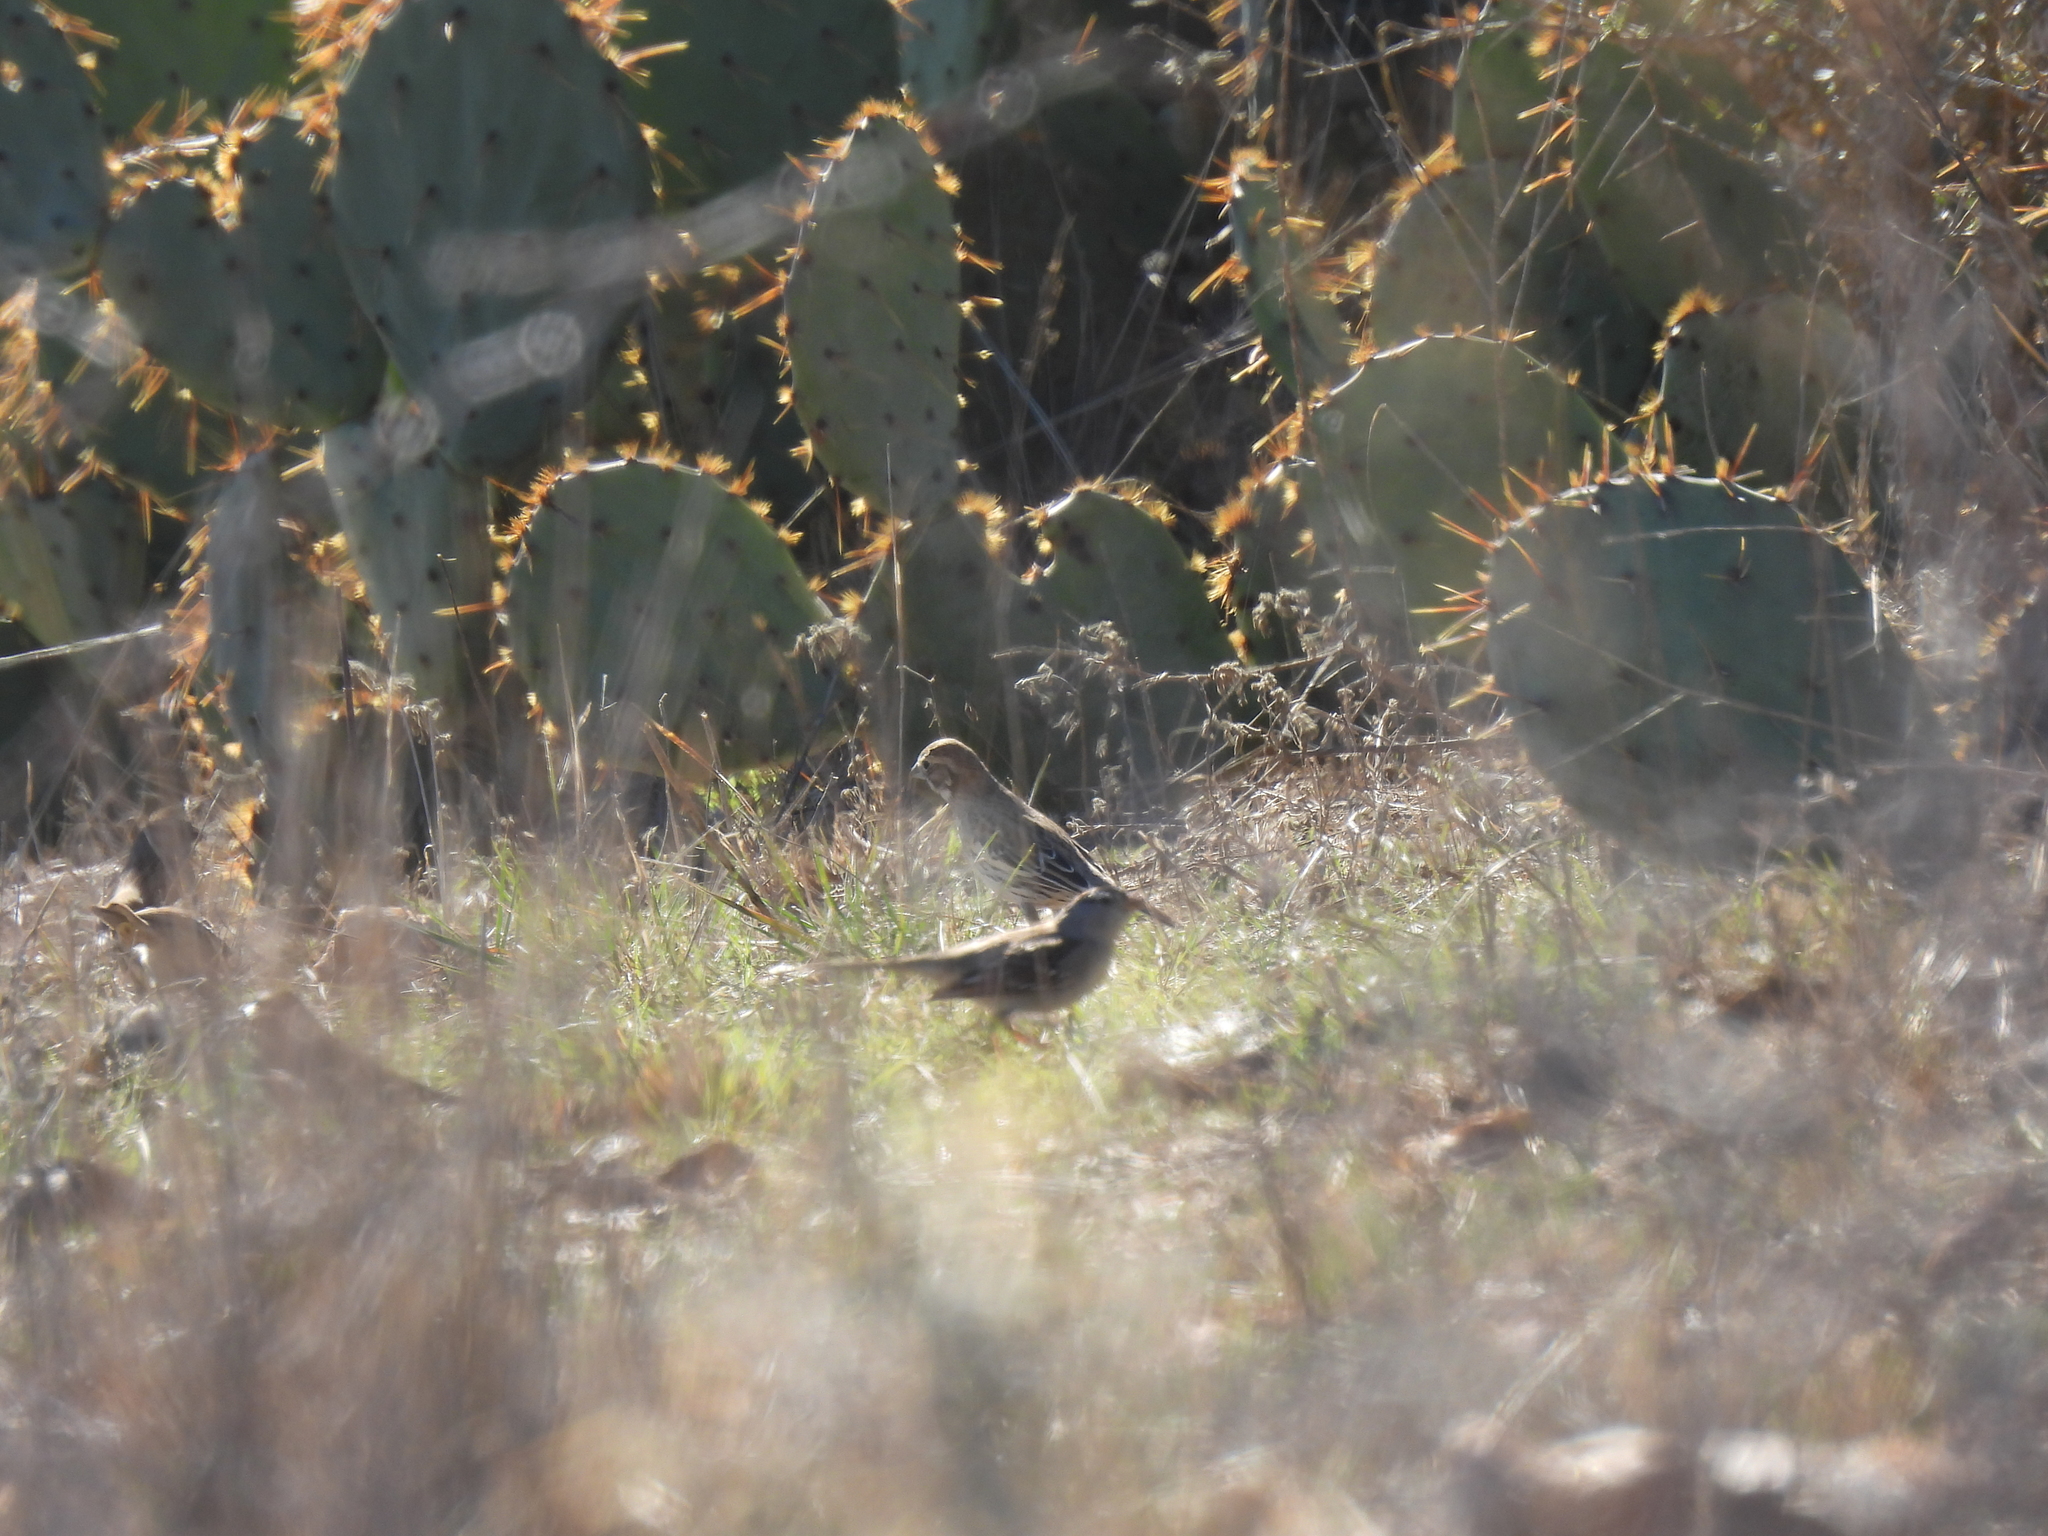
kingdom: Animalia
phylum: Chordata
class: Aves
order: Passeriformes
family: Passerellidae
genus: Calamospiza
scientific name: Calamospiza melanocorys
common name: Lark bunting
